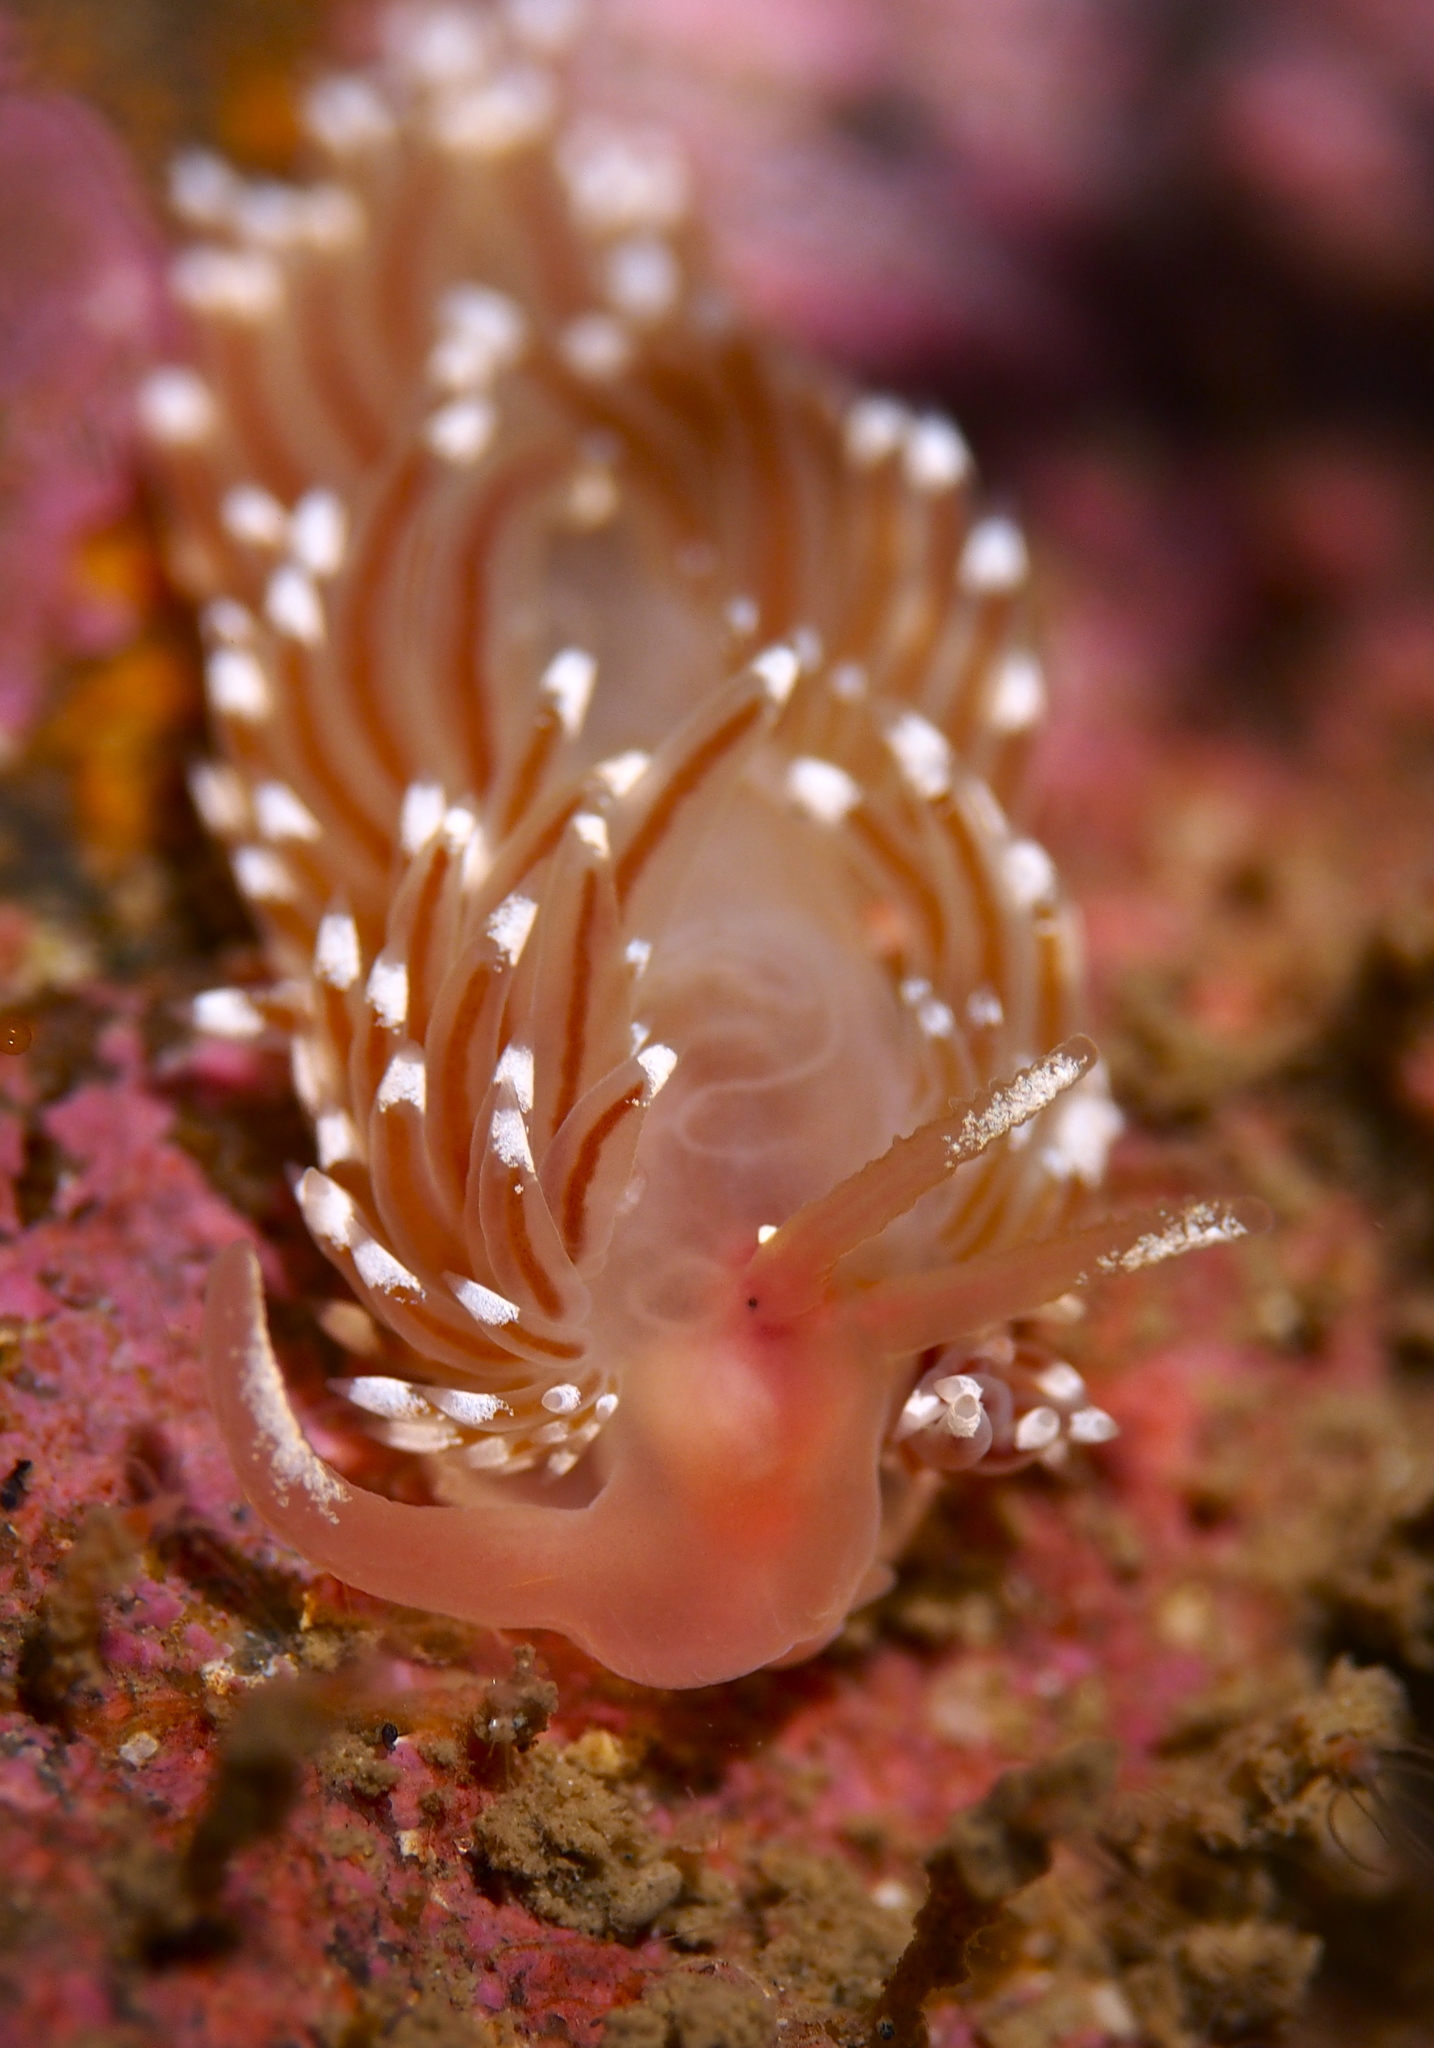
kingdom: Animalia
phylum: Mollusca
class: Gastropoda
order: Nudibranchia
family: Facelinidae
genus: Facelina
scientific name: Facelina bostoniensis
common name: Boston facelina
